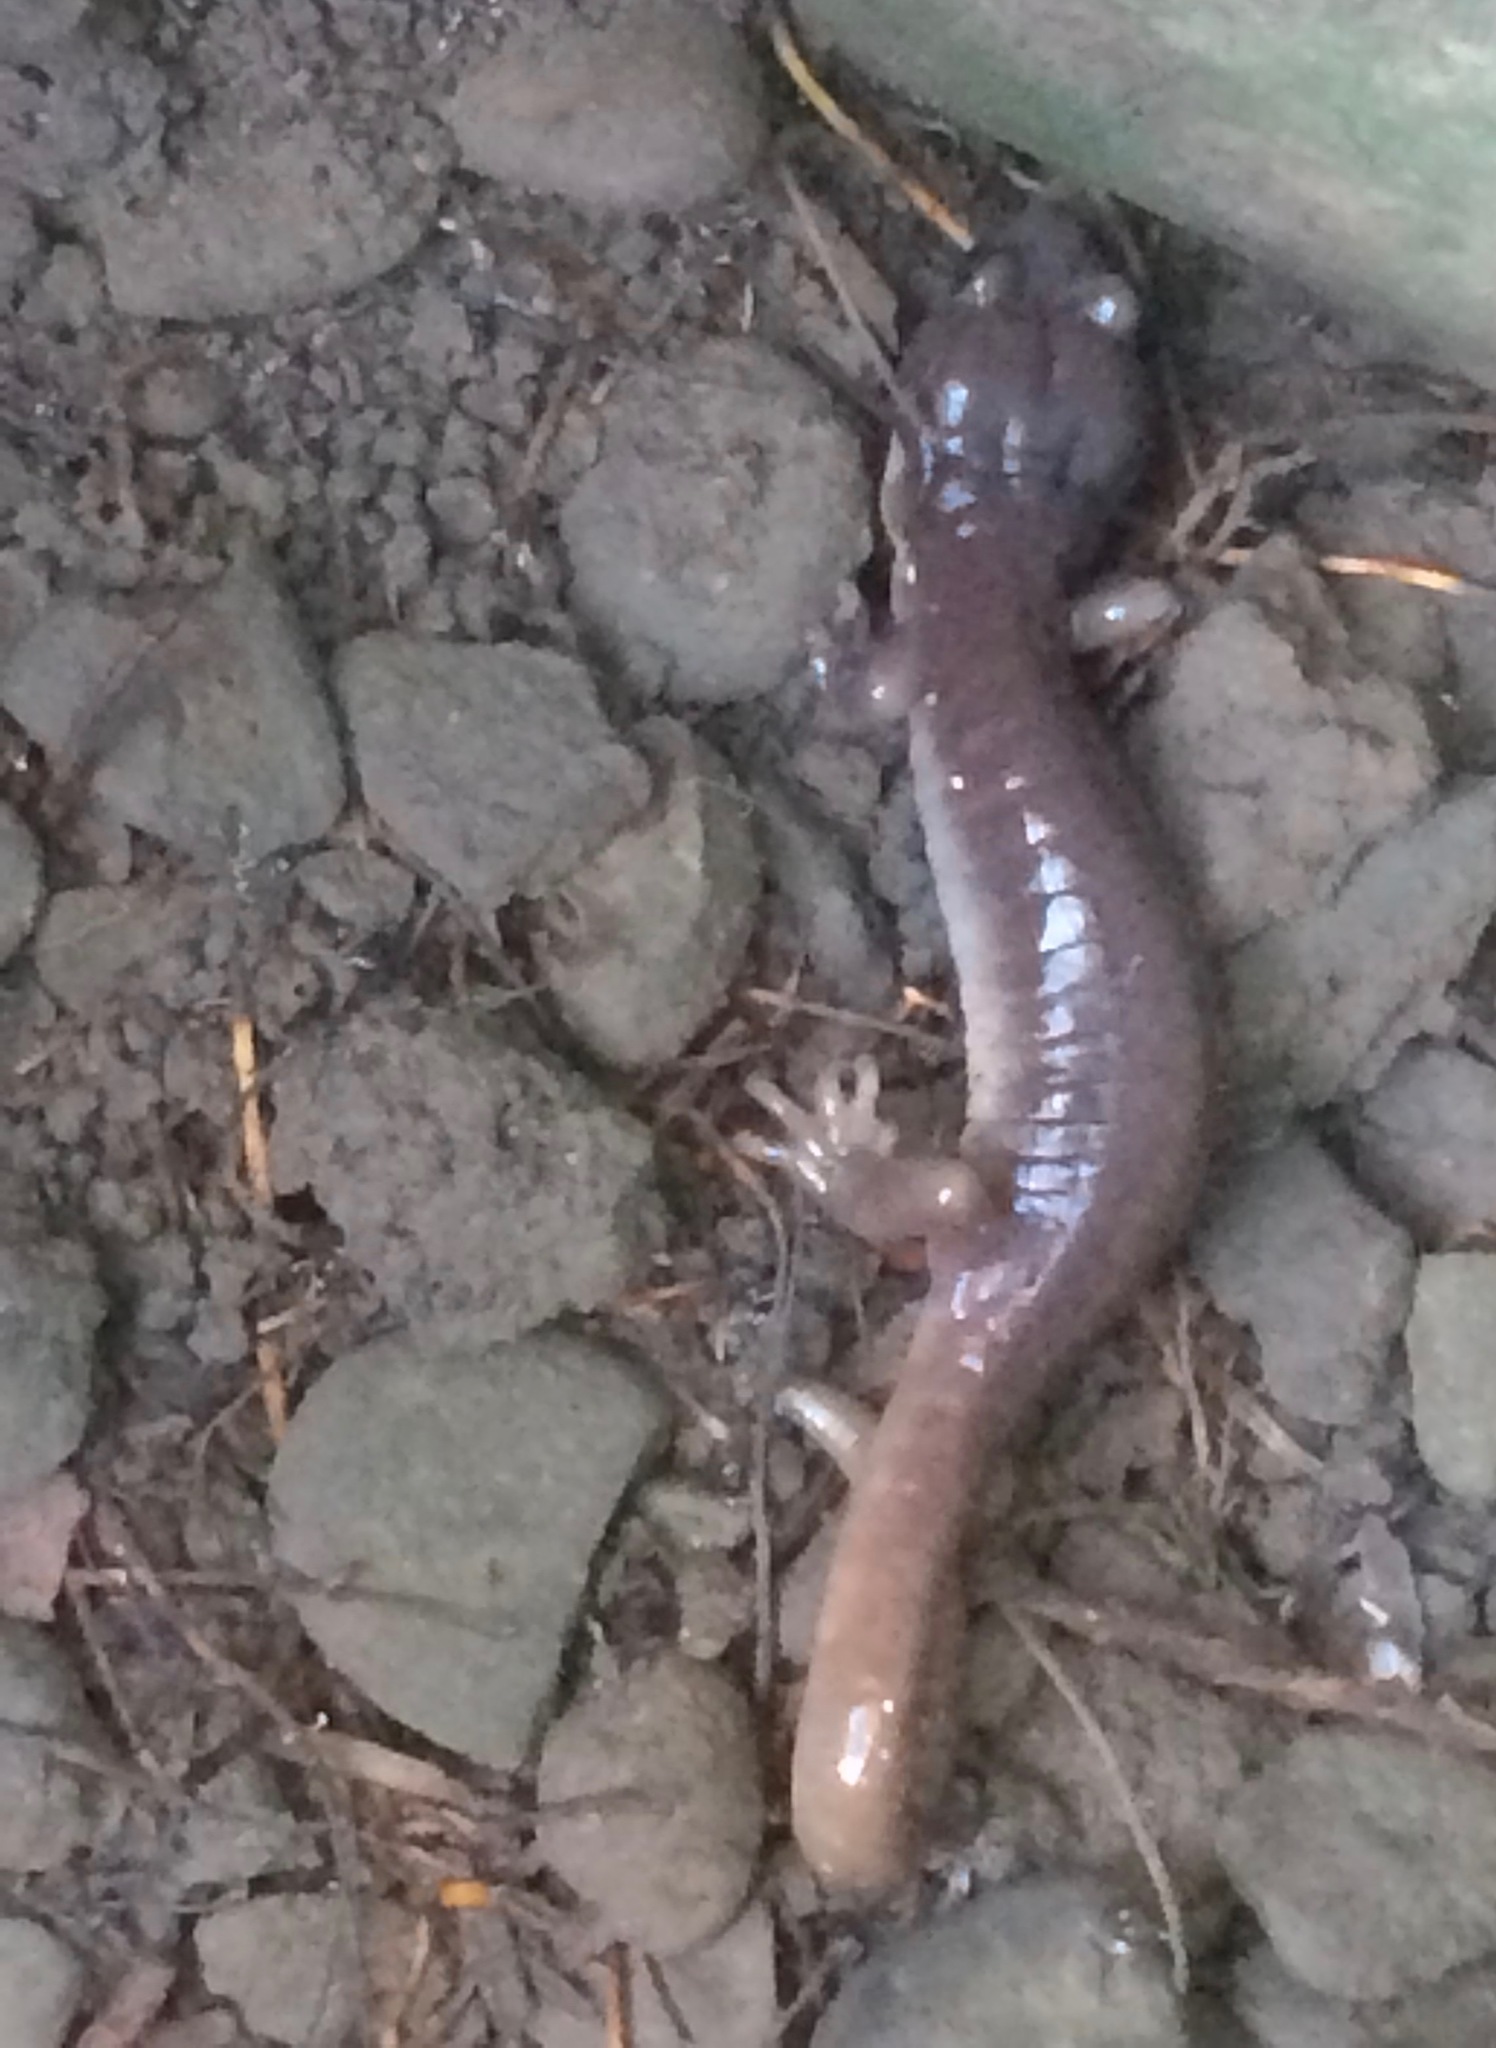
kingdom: Animalia
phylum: Chordata
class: Amphibia
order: Caudata
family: Plethodontidae
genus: Aneides
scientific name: Aneides lugubris
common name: Arboreal salamander
